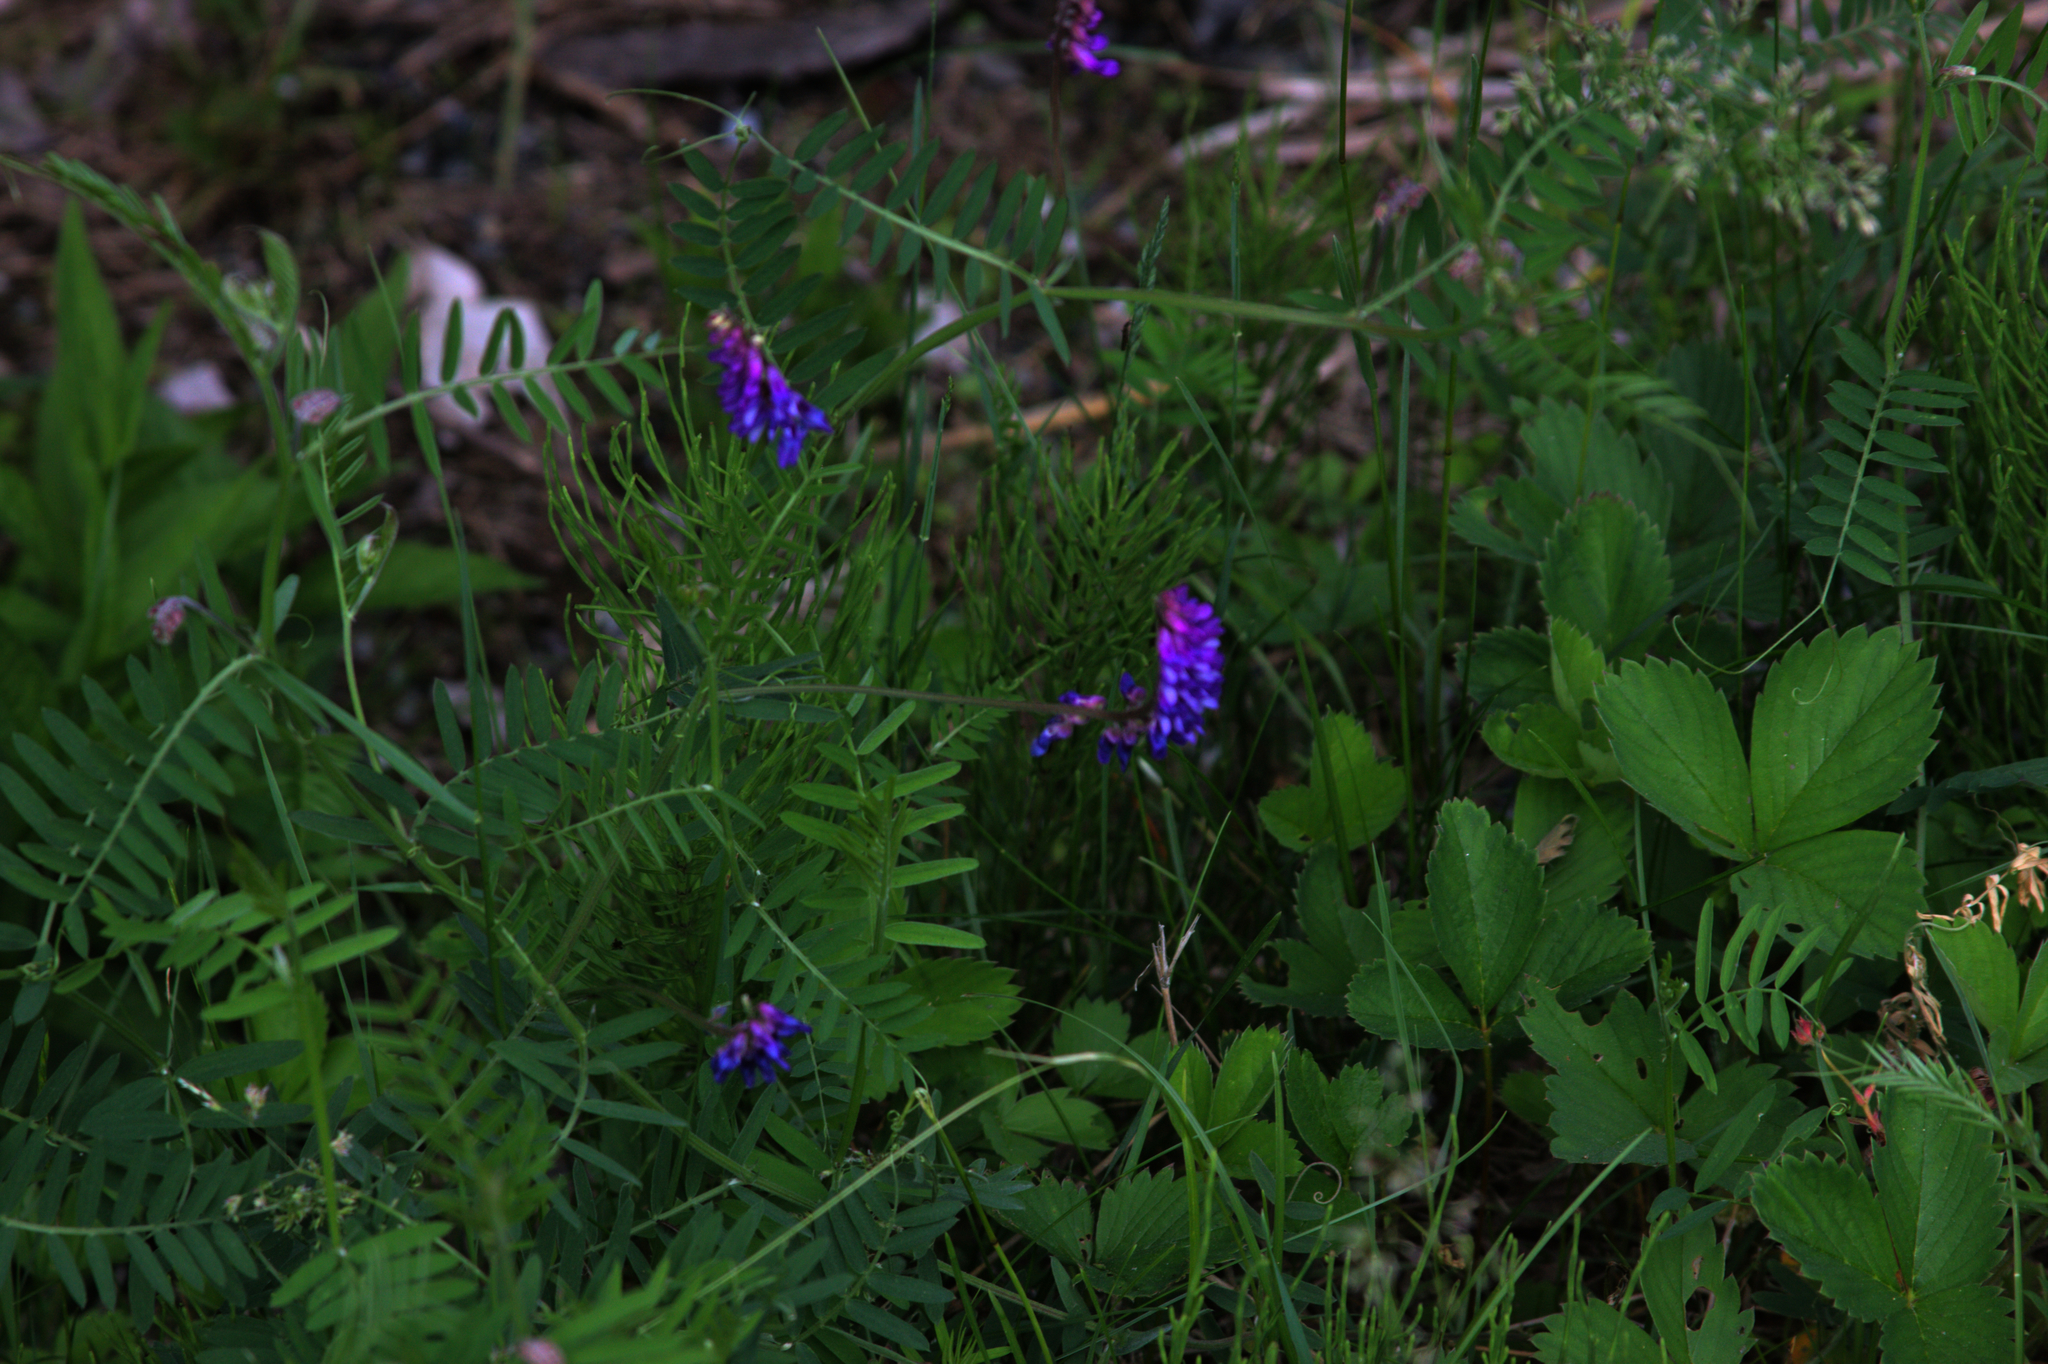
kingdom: Plantae
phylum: Tracheophyta
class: Magnoliopsida
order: Fabales
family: Fabaceae
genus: Vicia
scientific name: Vicia cracca
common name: Bird vetch
